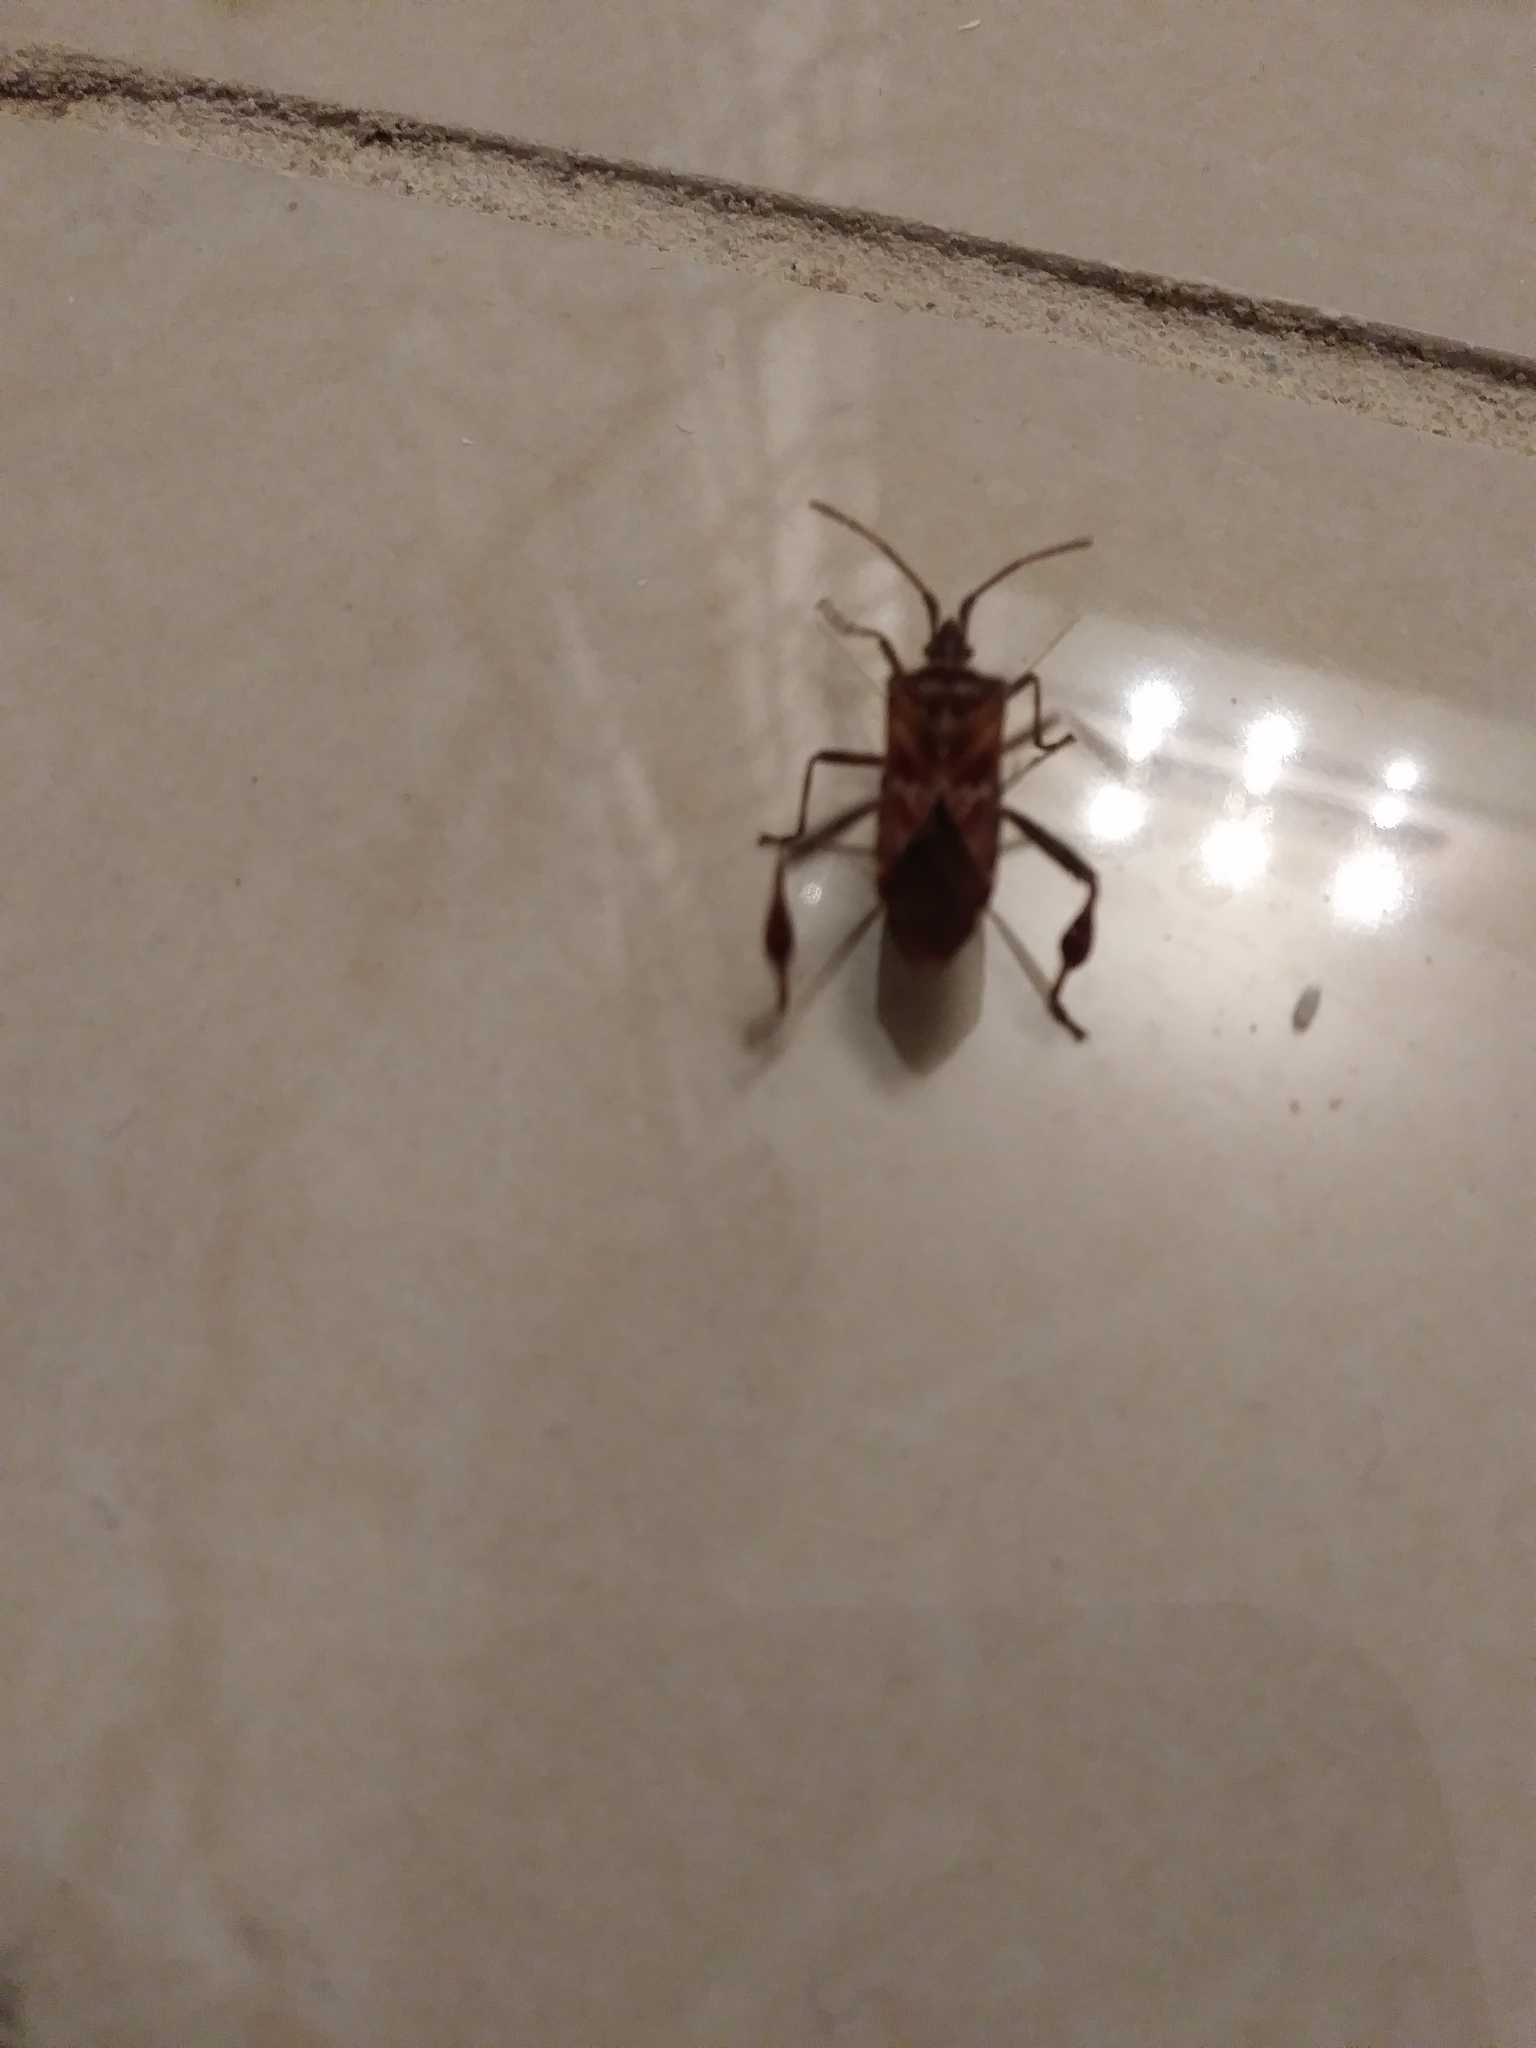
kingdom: Animalia
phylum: Arthropoda
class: Insecta
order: Hemiptera
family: Coreidae
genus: Leptoglossus
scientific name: Leptoglossus occidentalis
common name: Western conifer-seed bug
